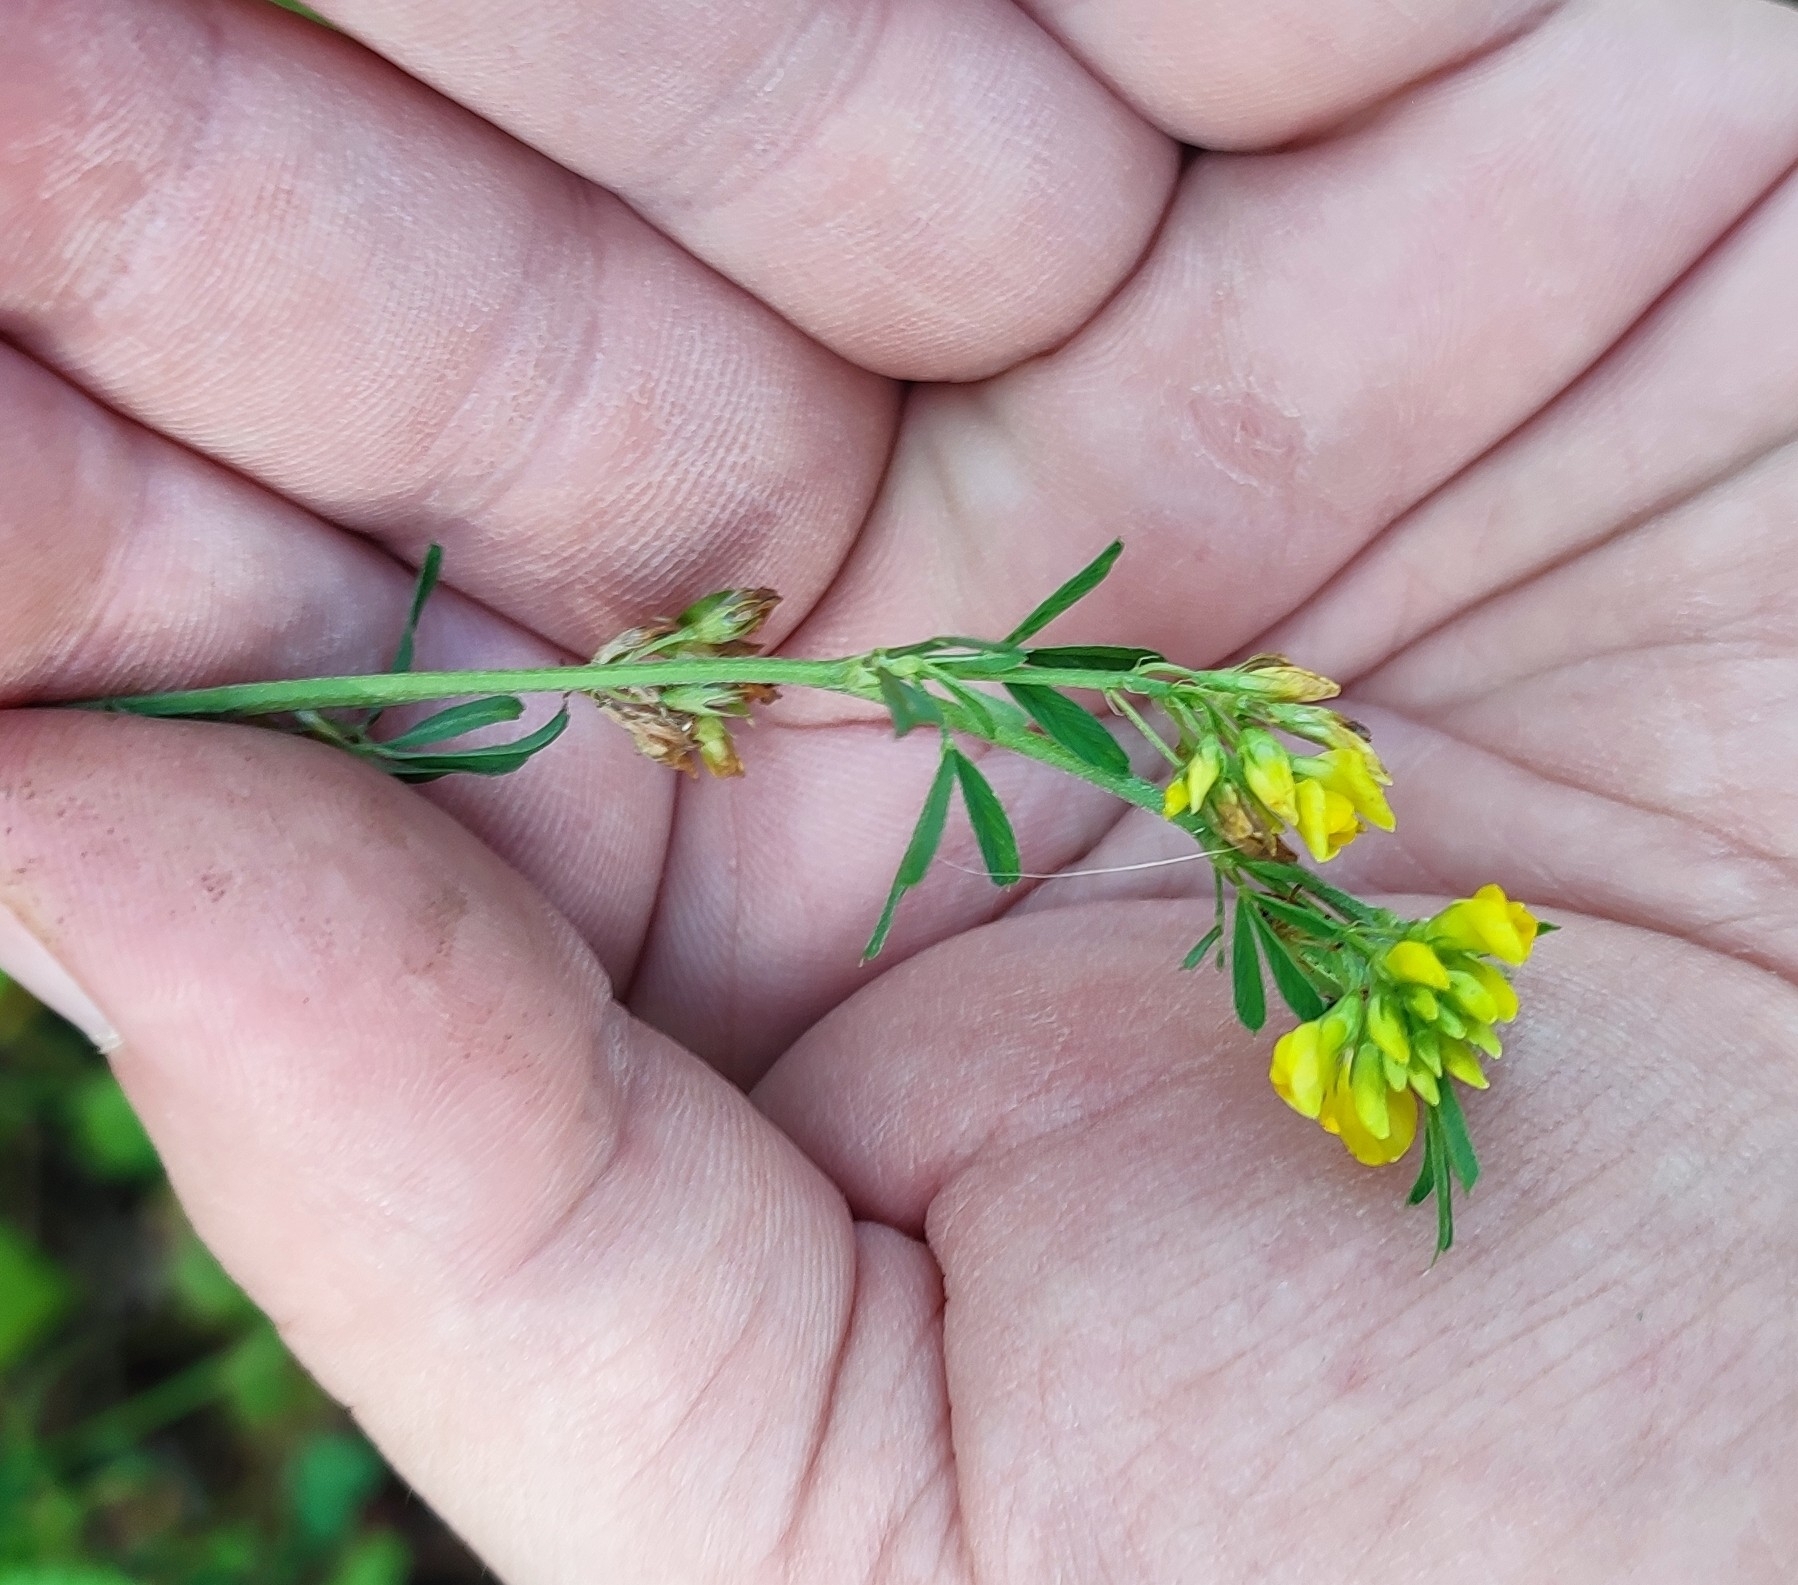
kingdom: Plantae
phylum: Tracheophyta
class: Magnoliopsida
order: Fabales
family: Fabaceae
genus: Medicago
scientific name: Medicago falcata
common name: Sickle medick
